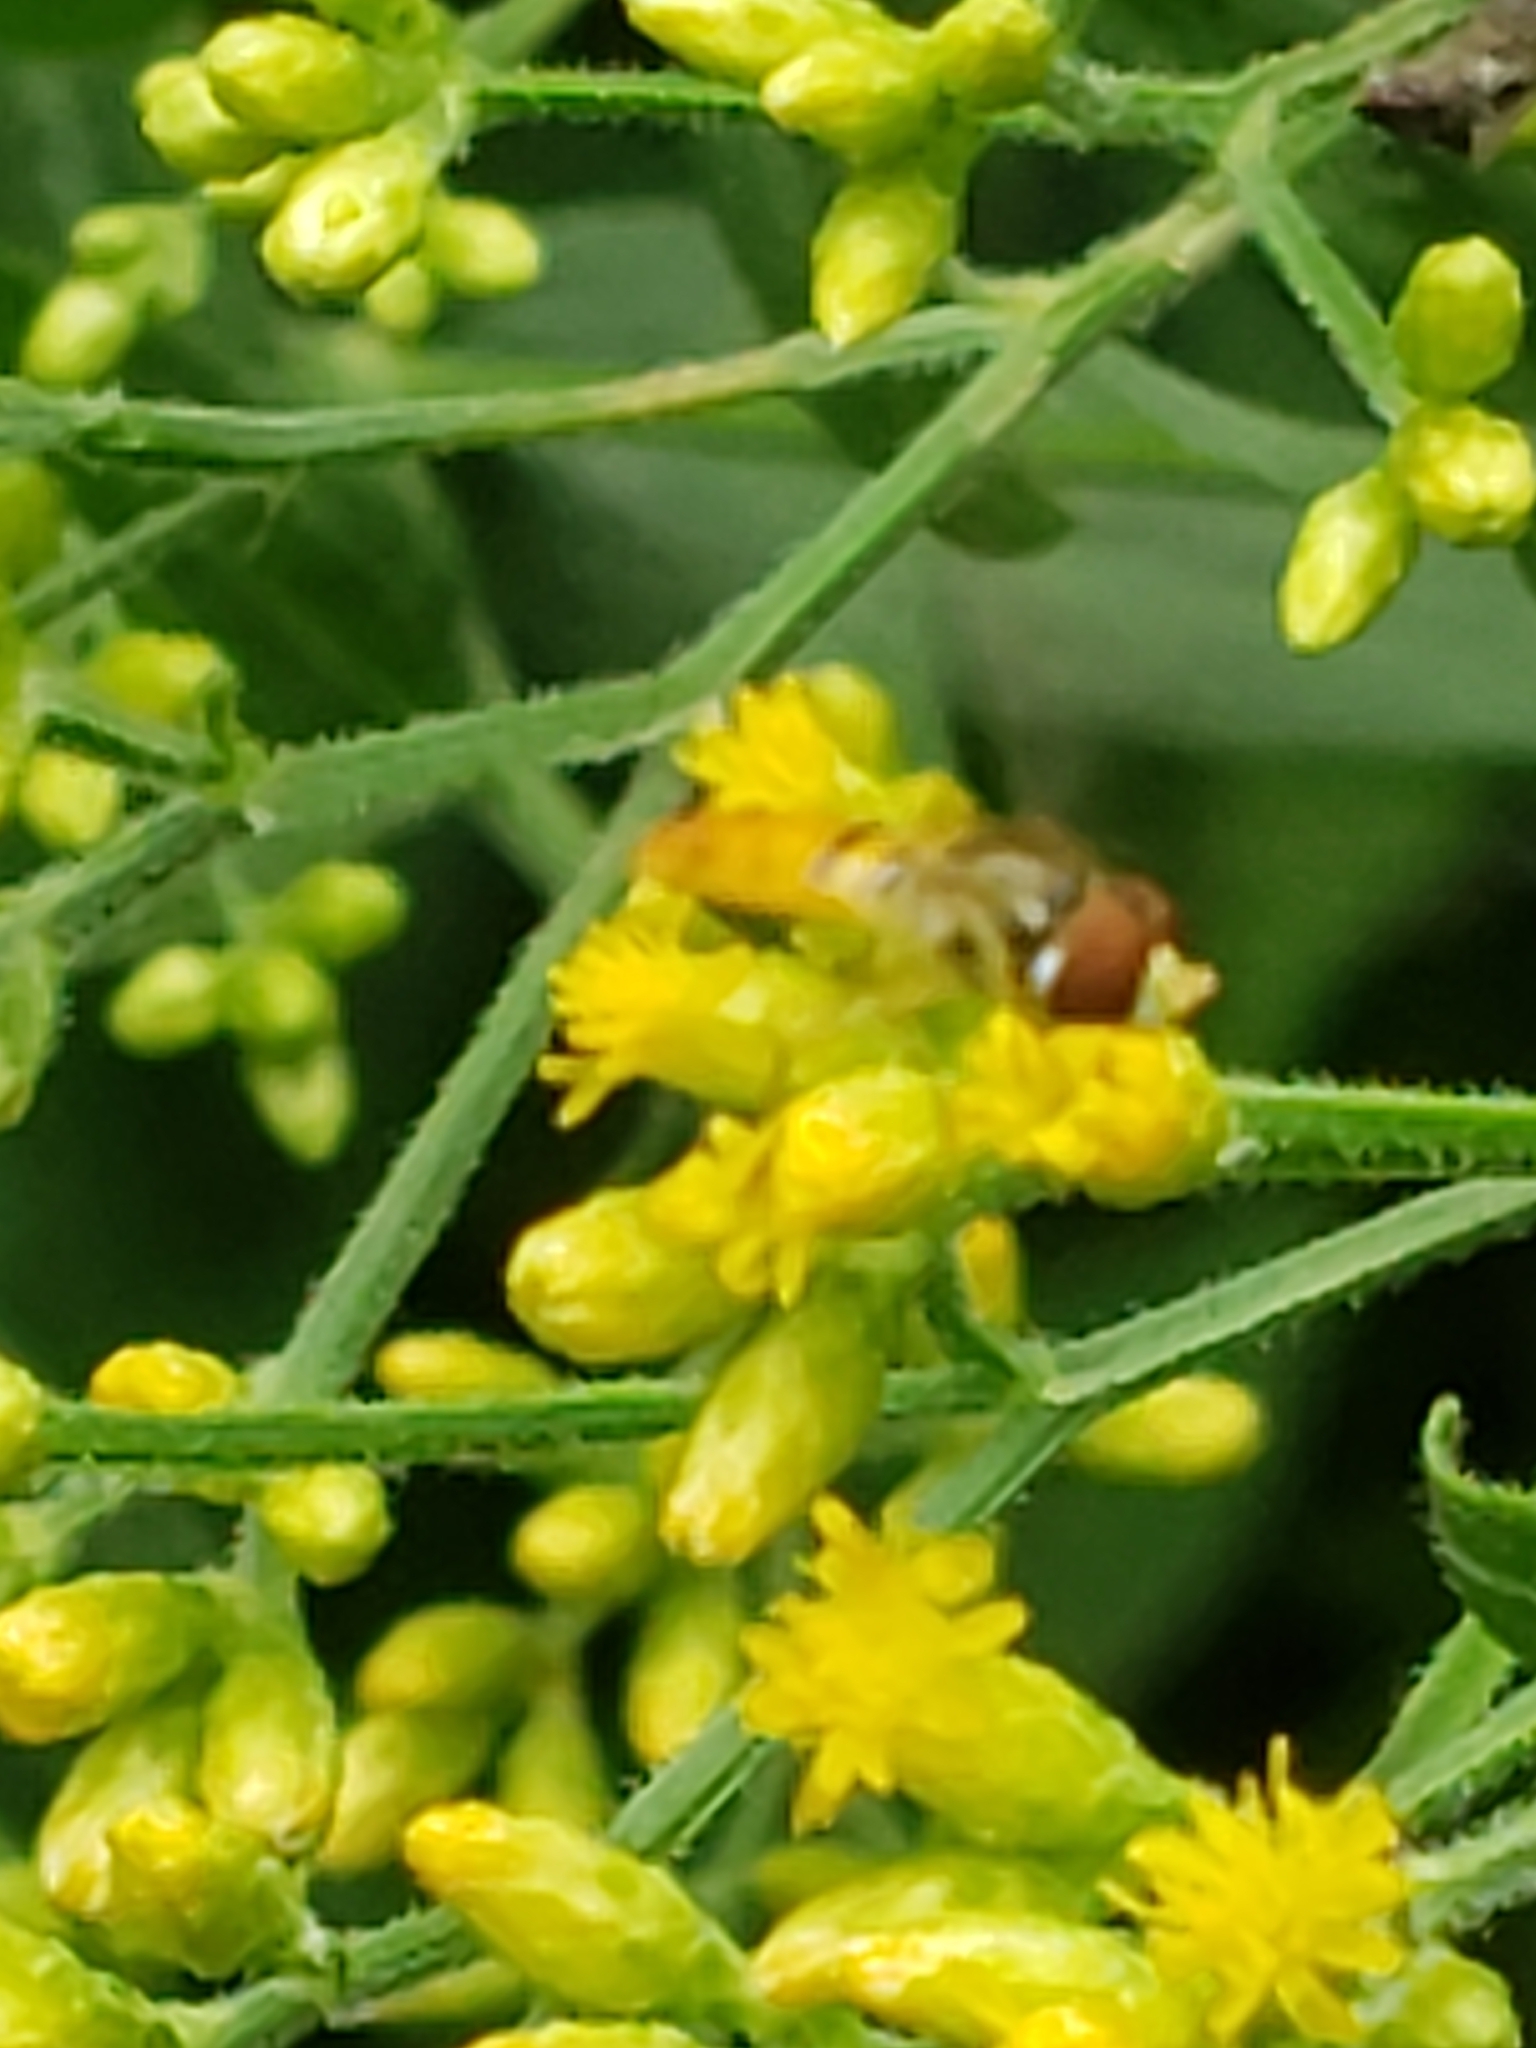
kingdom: Animalia
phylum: Arthropoda
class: Insecta
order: Diptera
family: Syrphidae
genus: Toxomerus
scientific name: Toxomerus marginatus
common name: Syrphid fly
